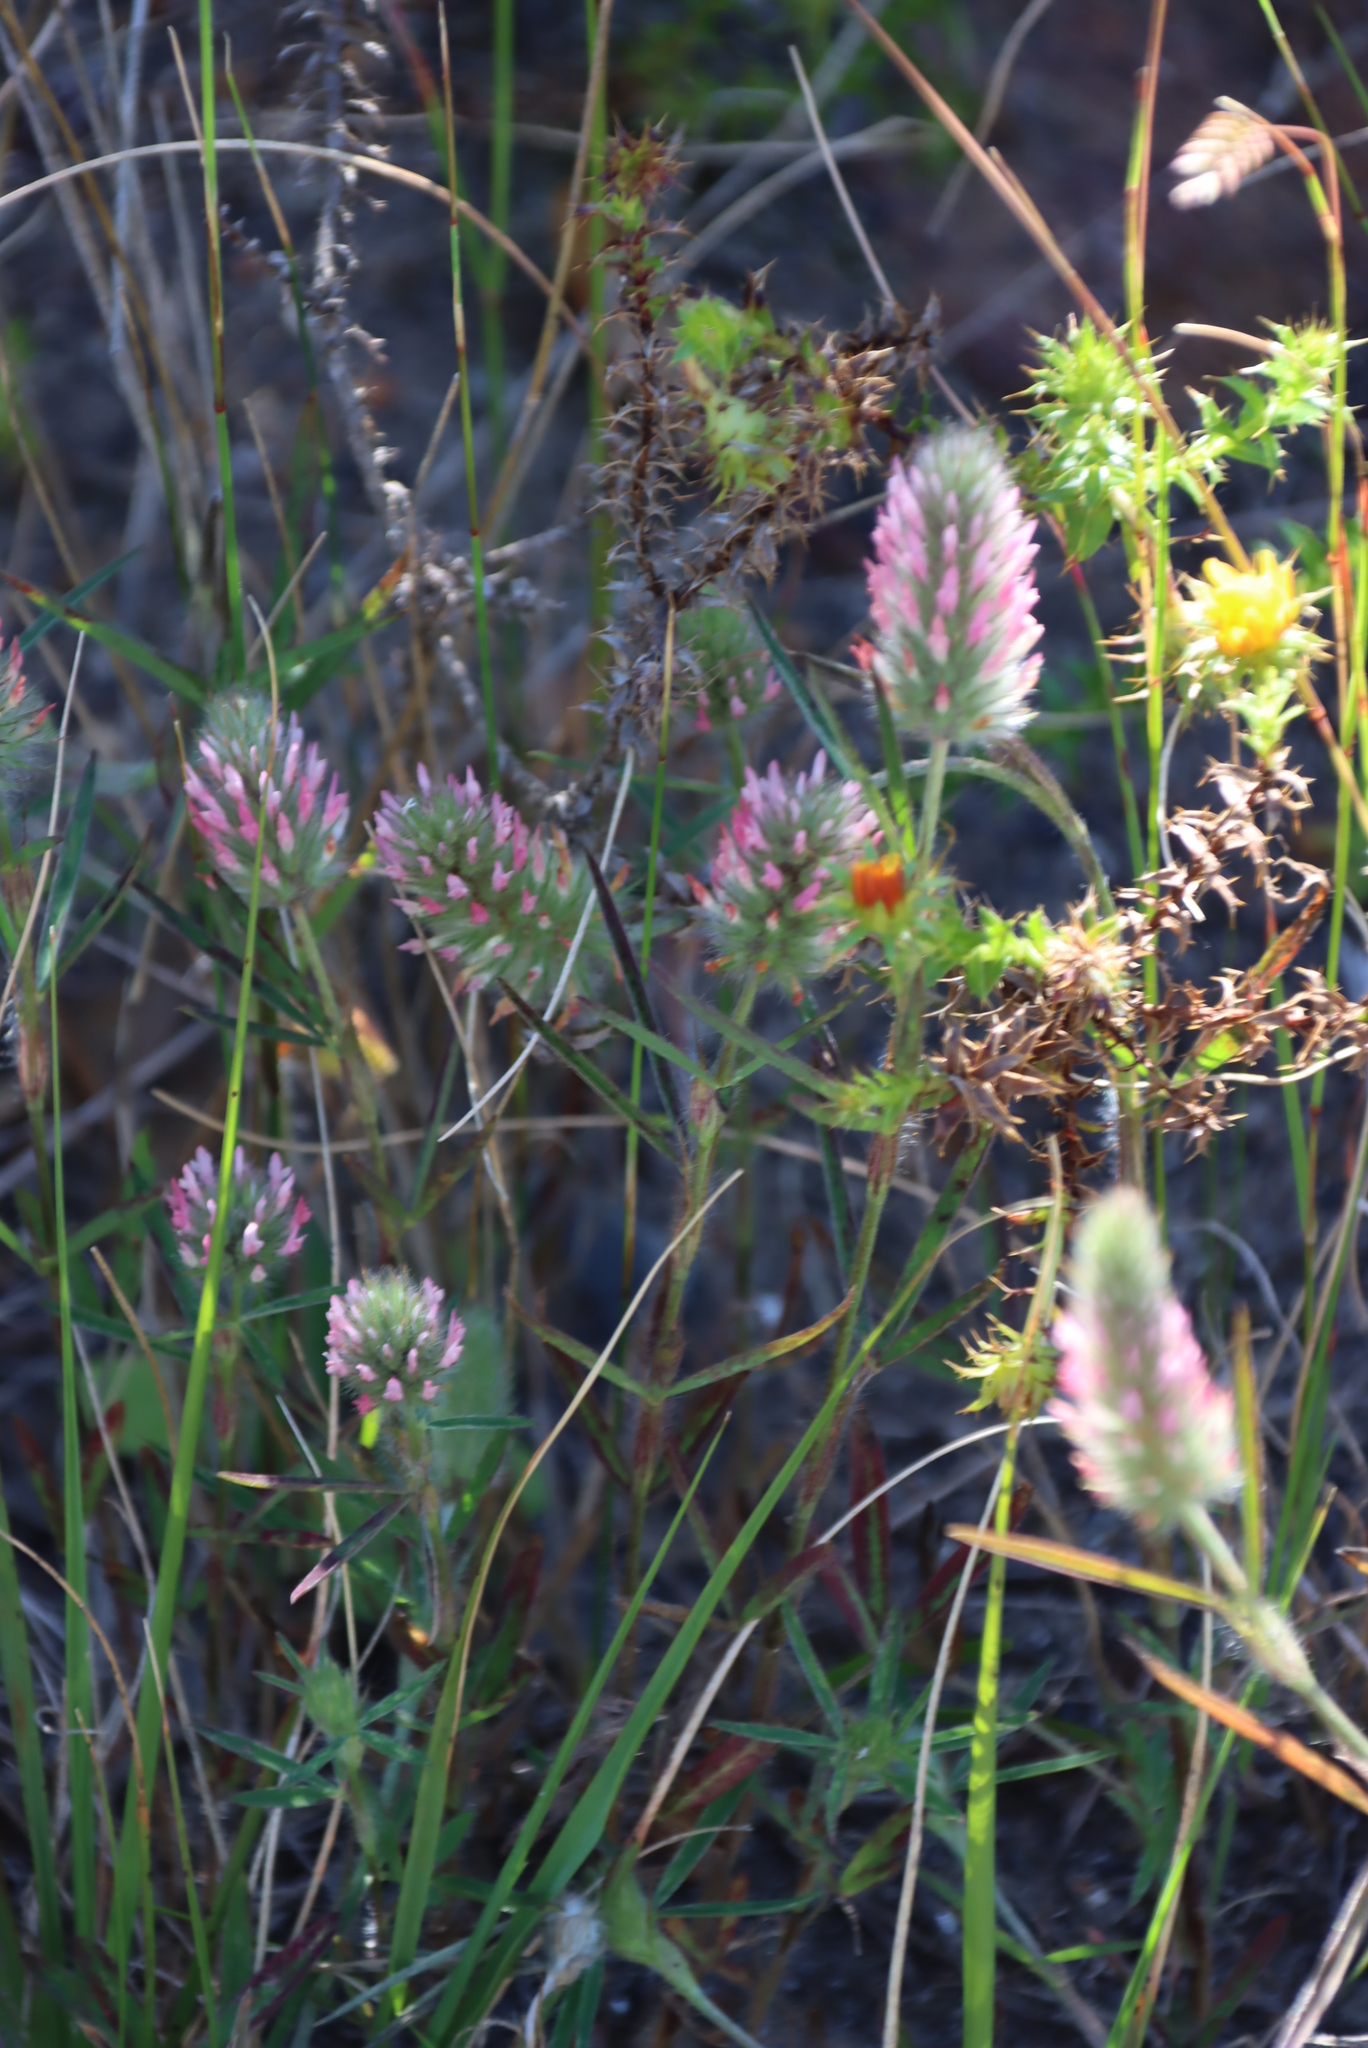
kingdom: Plantae
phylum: Tracheophyta
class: Magnoliopsida
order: Fabales
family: Fabaceae
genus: Trifolium
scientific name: Trifolium angustifolium
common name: Narrow clover
